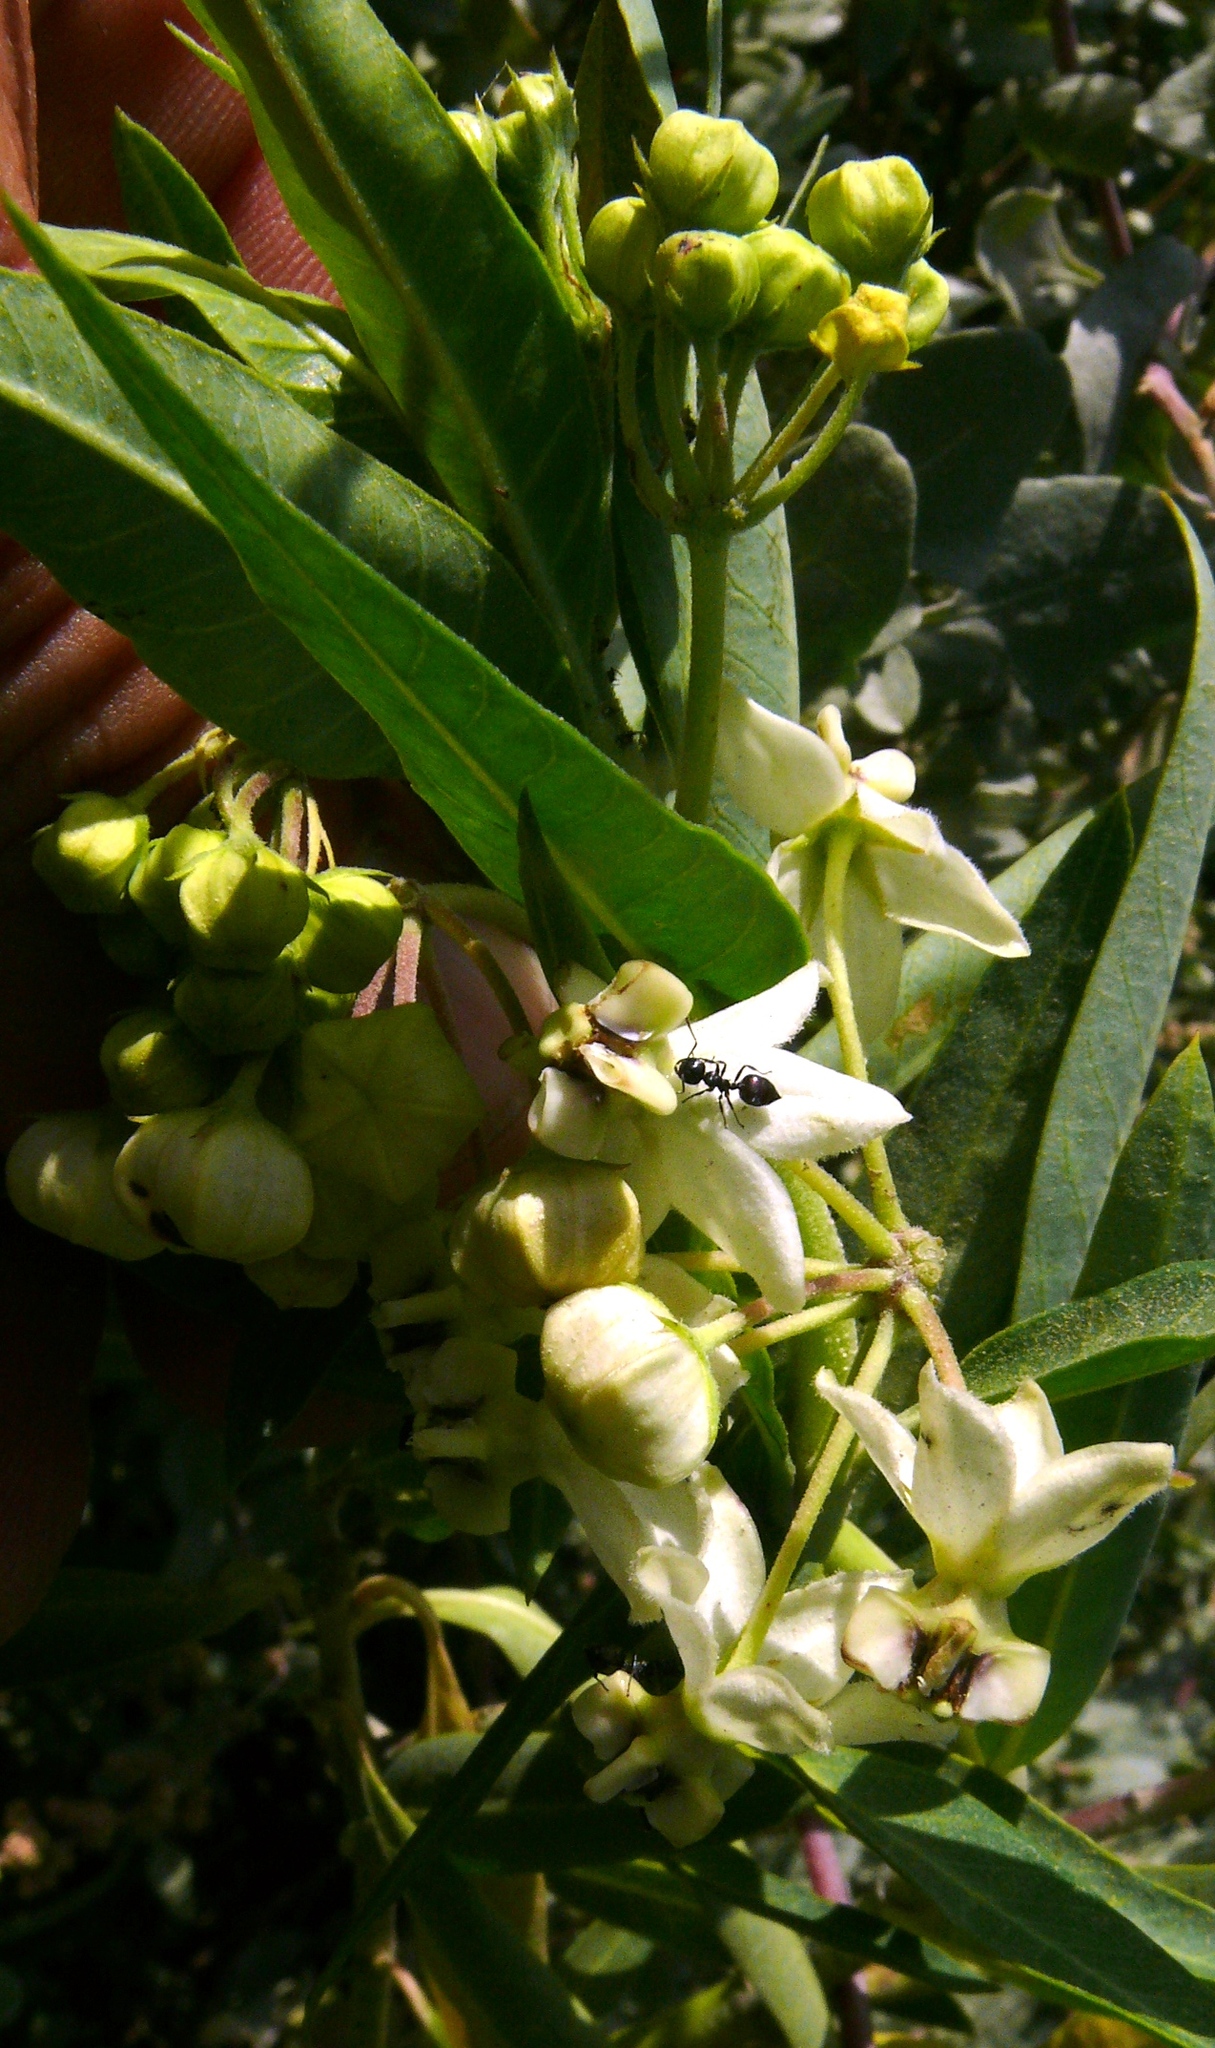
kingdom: Plantae
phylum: Tracheophyta
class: Magnoliopsida
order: Gentianales
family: Apocynaceae
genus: Gomphocarpus
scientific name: Gomphocarpus
